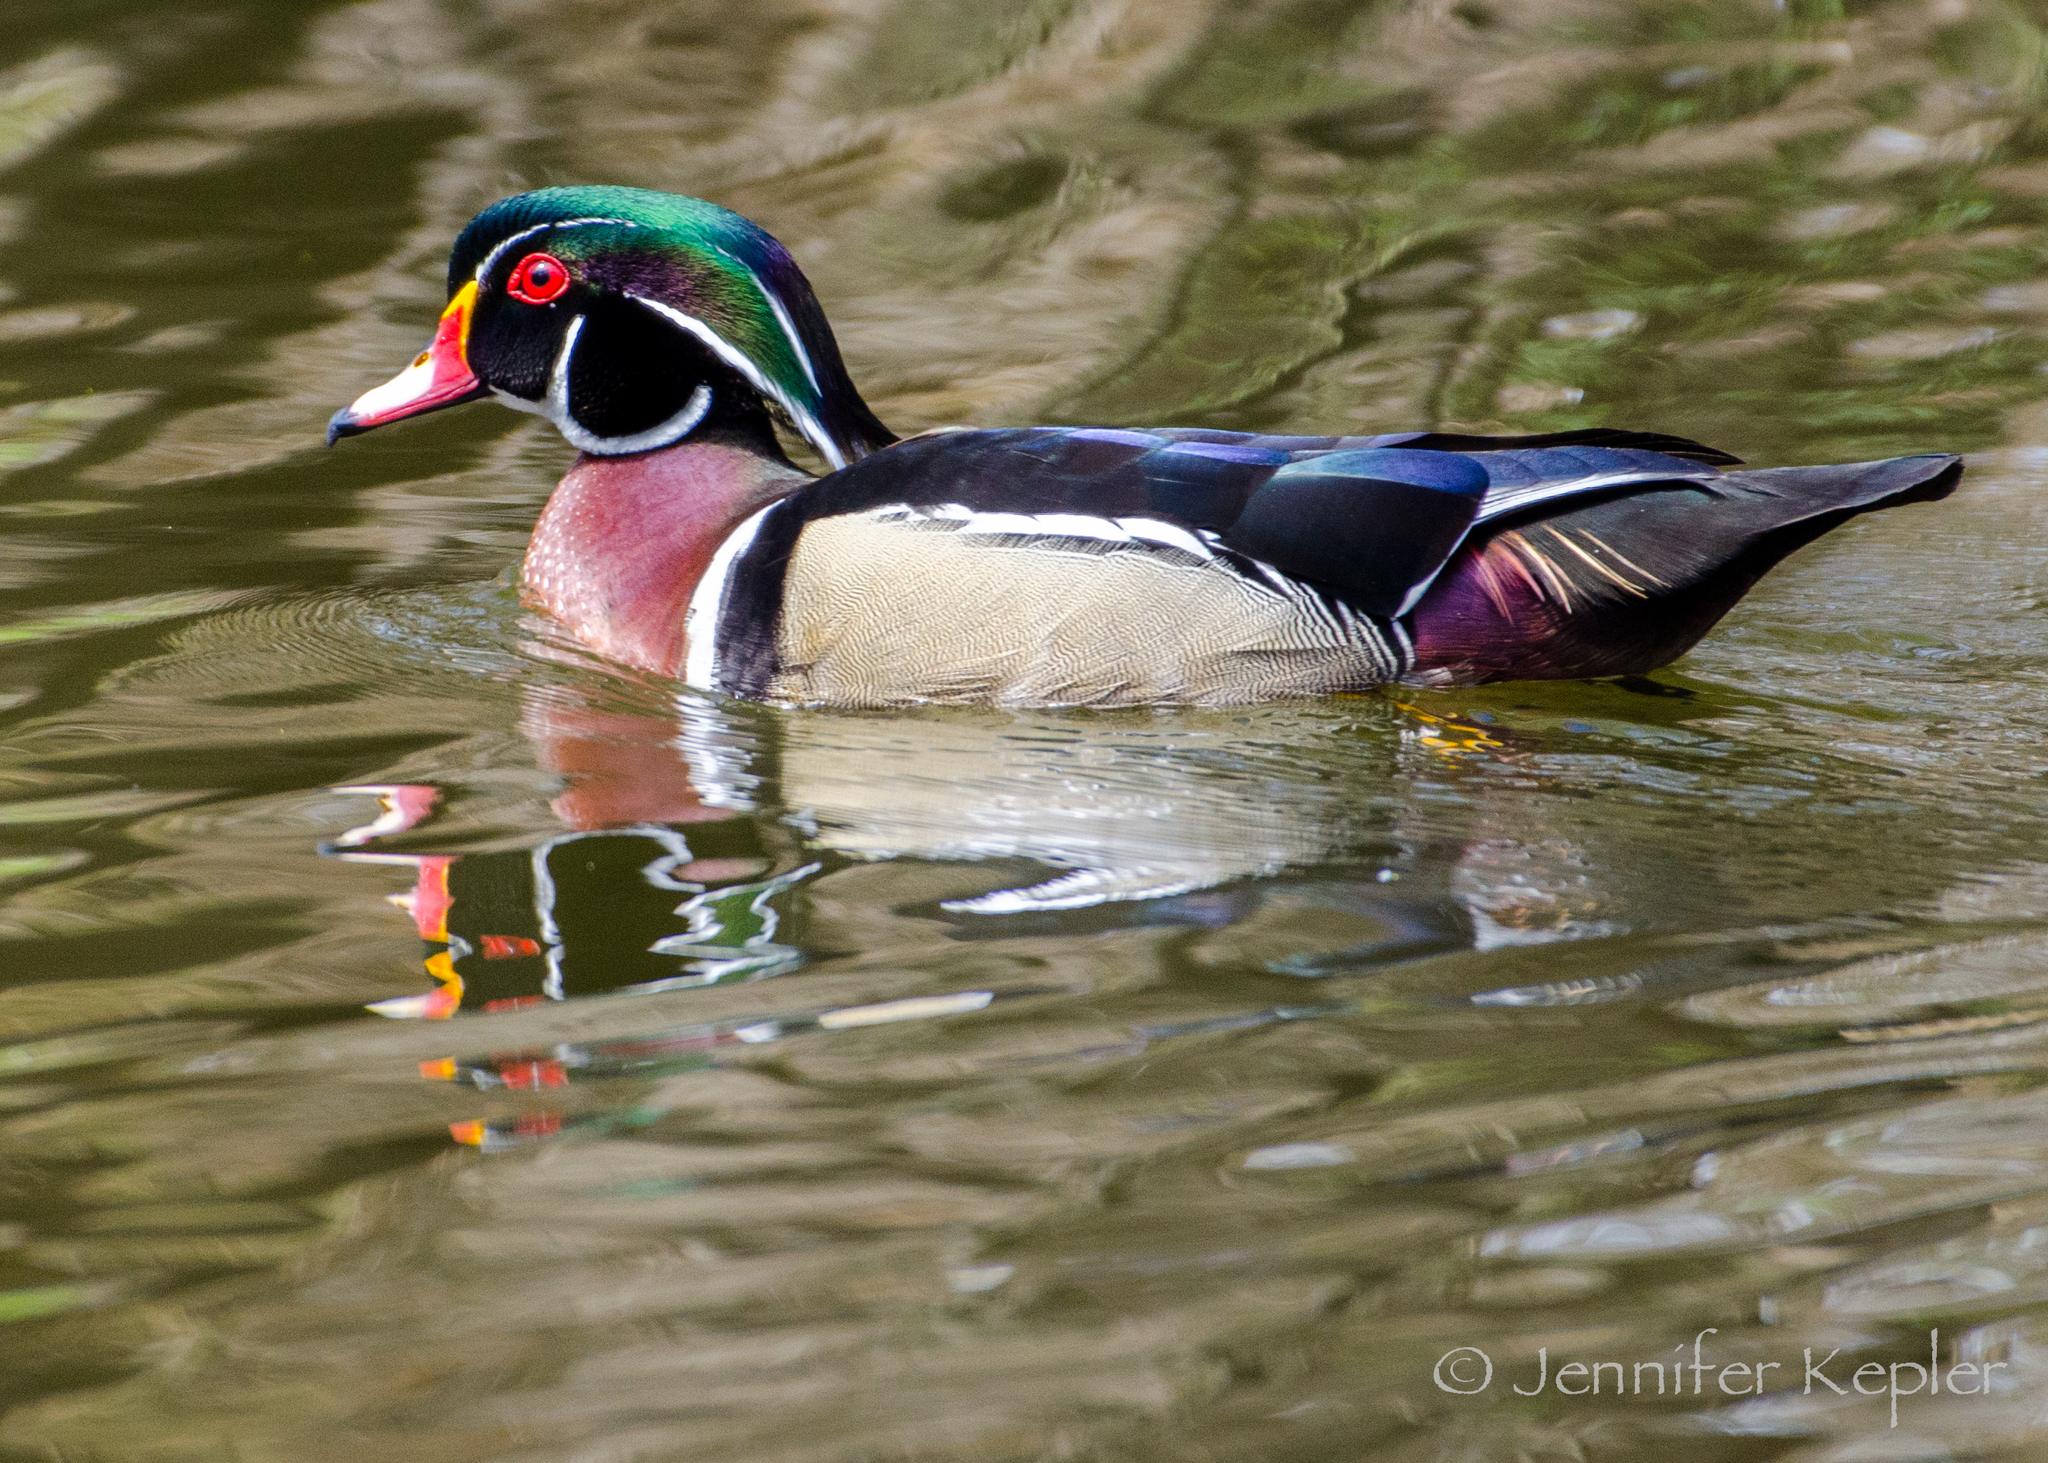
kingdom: Animalia
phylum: Chordata
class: Aves
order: Anseriformes
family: Anatidae
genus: Aix
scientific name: Aix sponsa
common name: Wood duck
